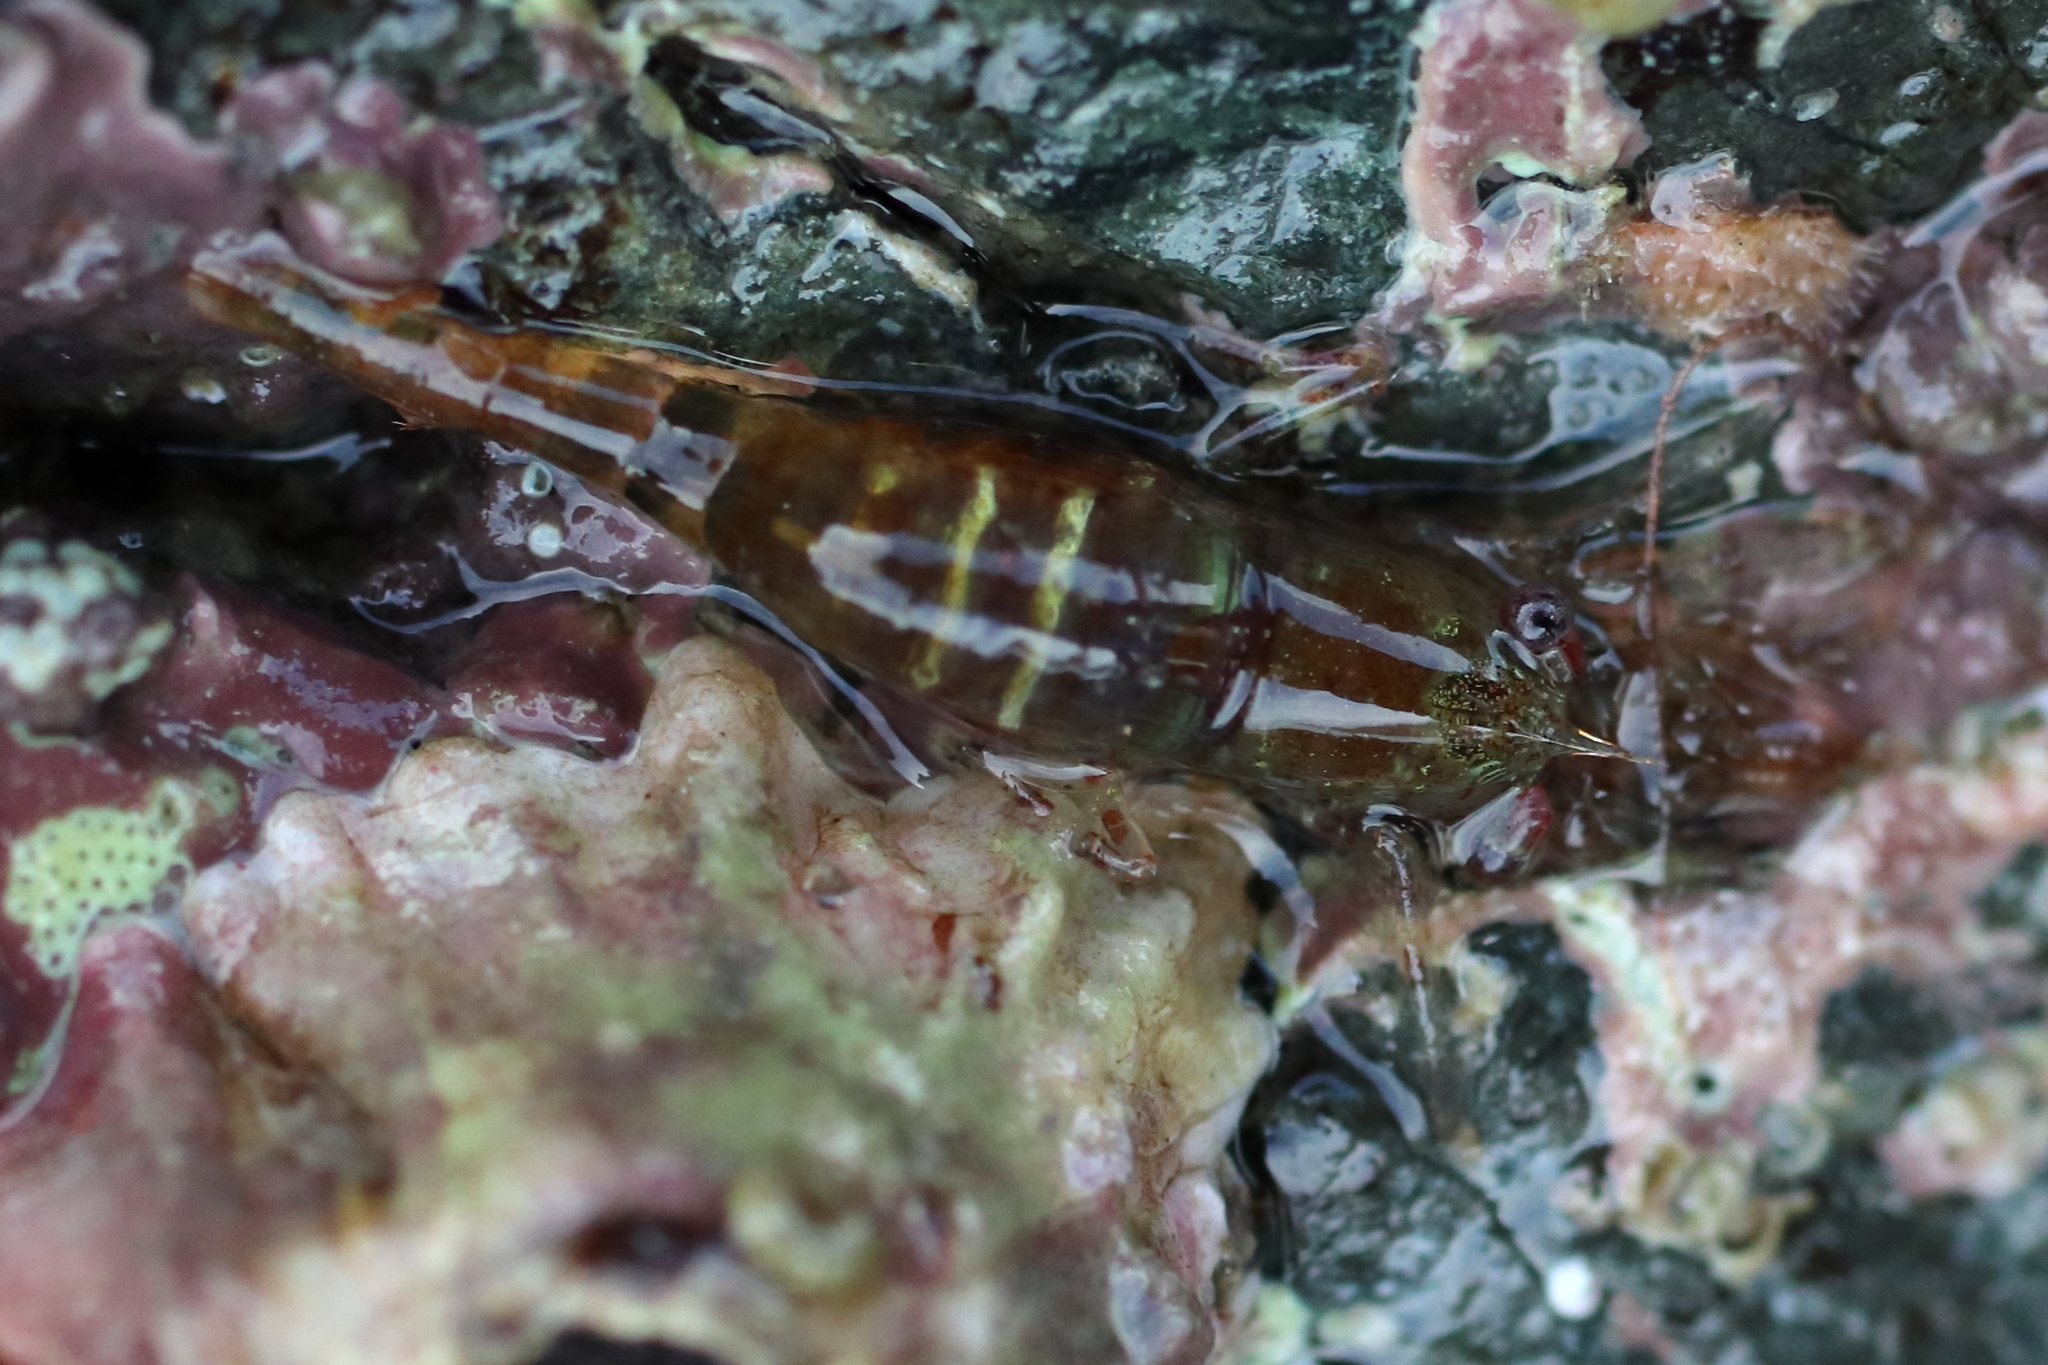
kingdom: Animalia
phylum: Arthropoda
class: Malacostraca
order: Decapoda
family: Thoridae
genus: Heptacarpus
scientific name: Heptacarpus pugettensis
